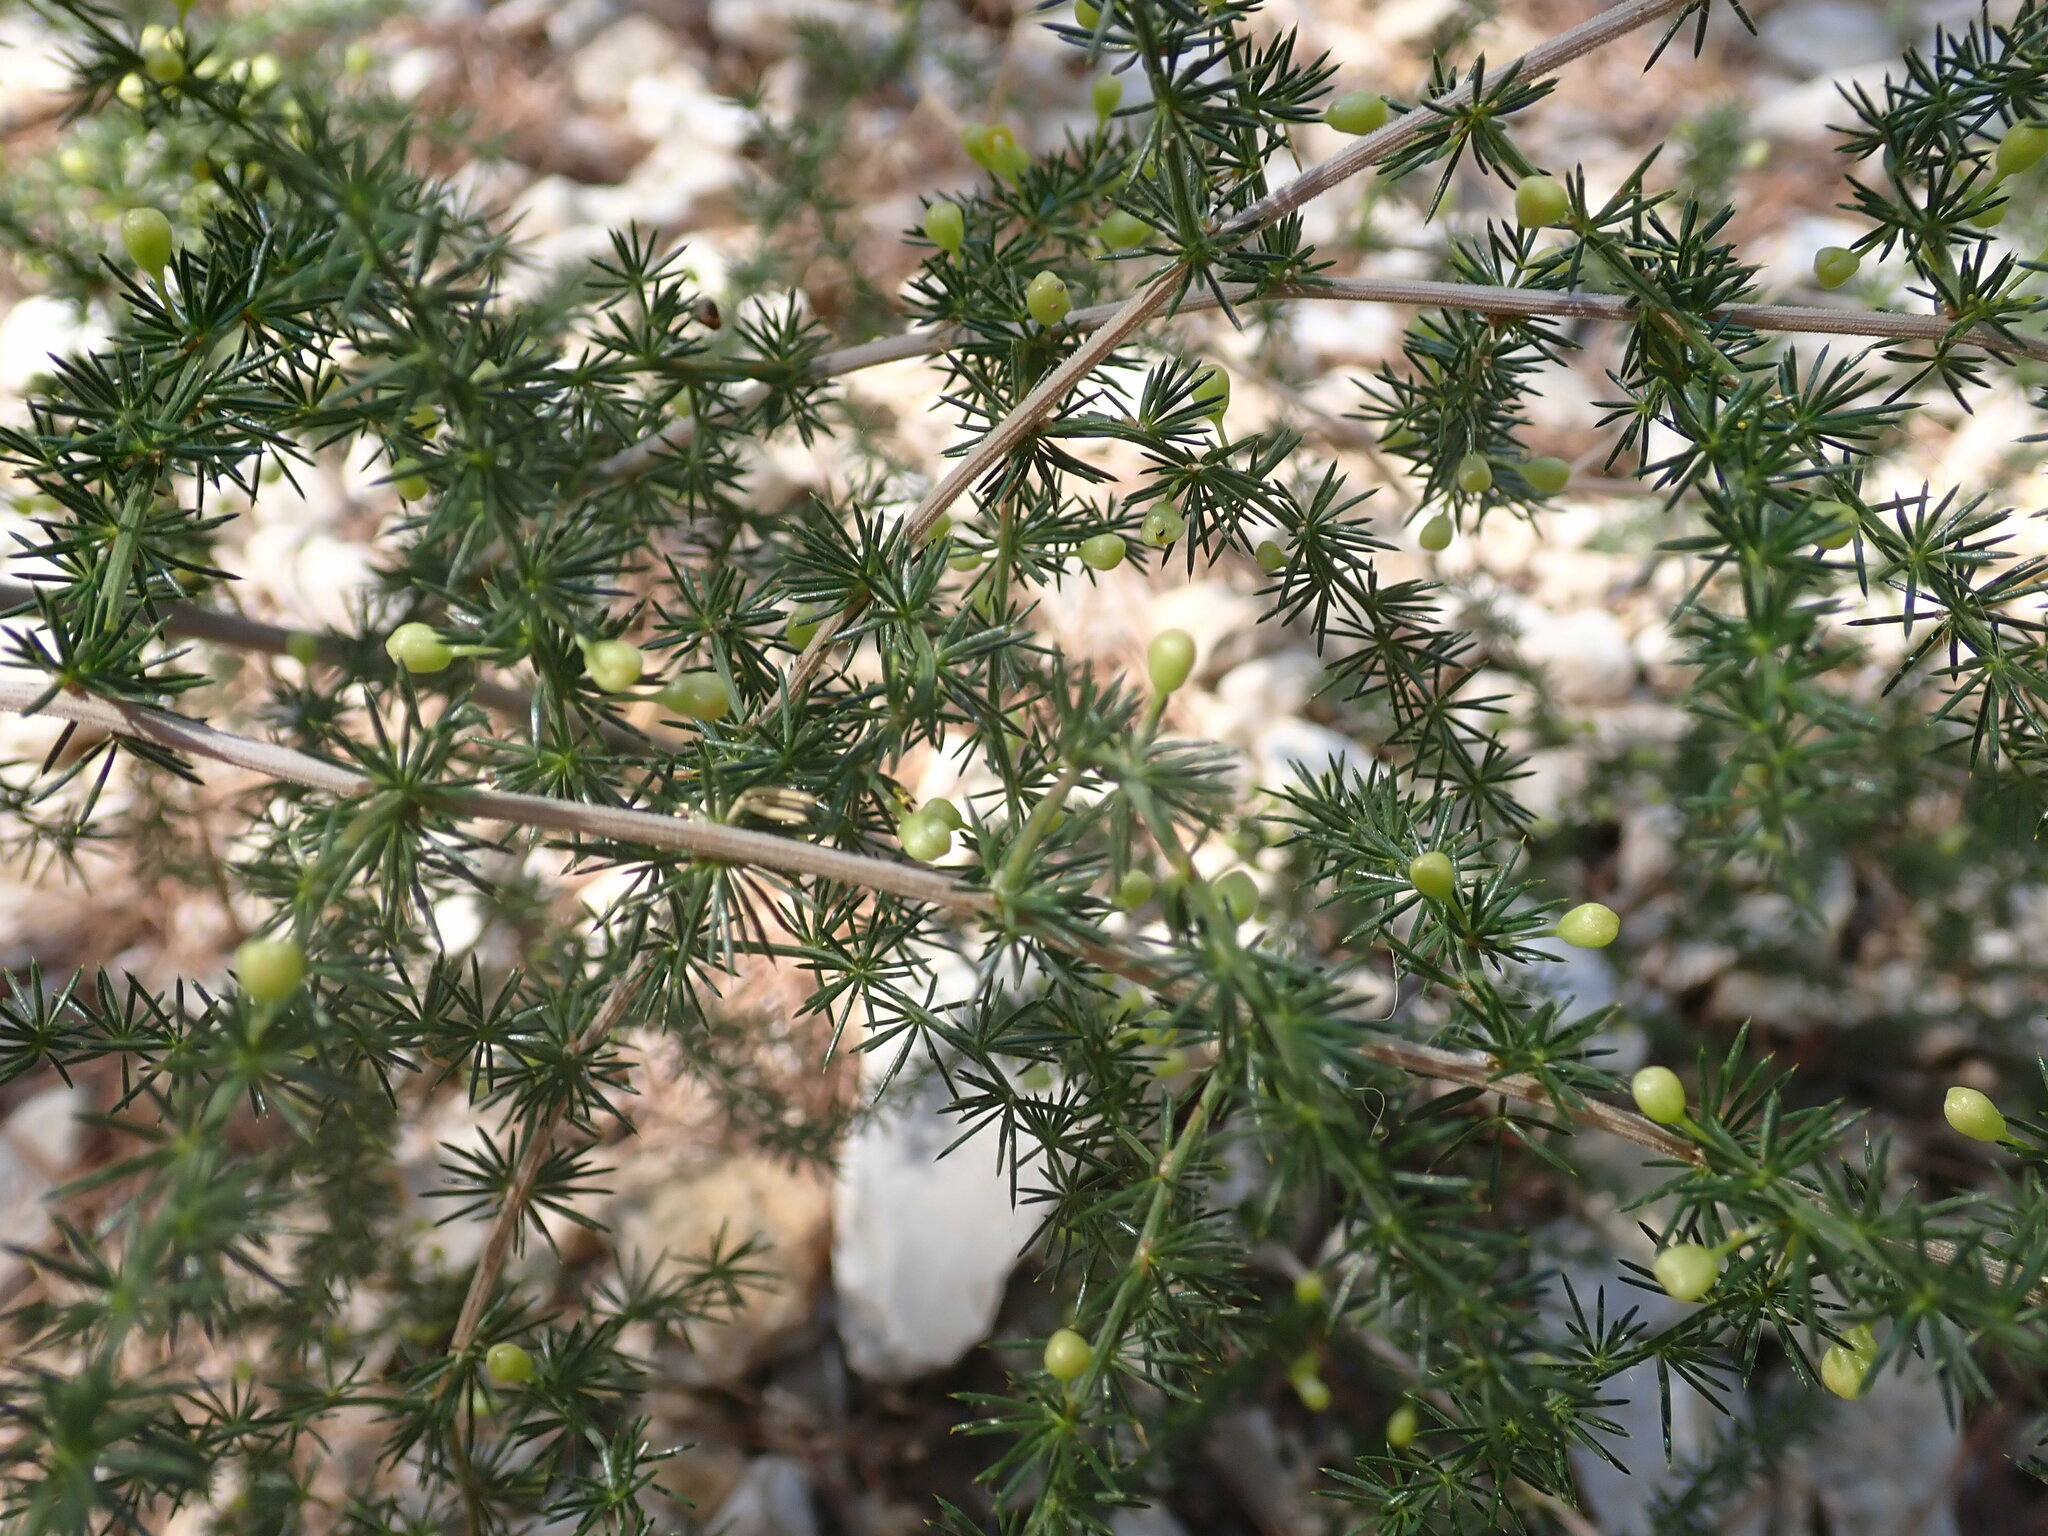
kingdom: Plantae
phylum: Tracheophyta
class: Liliopsida
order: Asparagales
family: Asparagaceae
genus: Asparagus
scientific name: Asparagus acutifolius
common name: Wild asparagus
